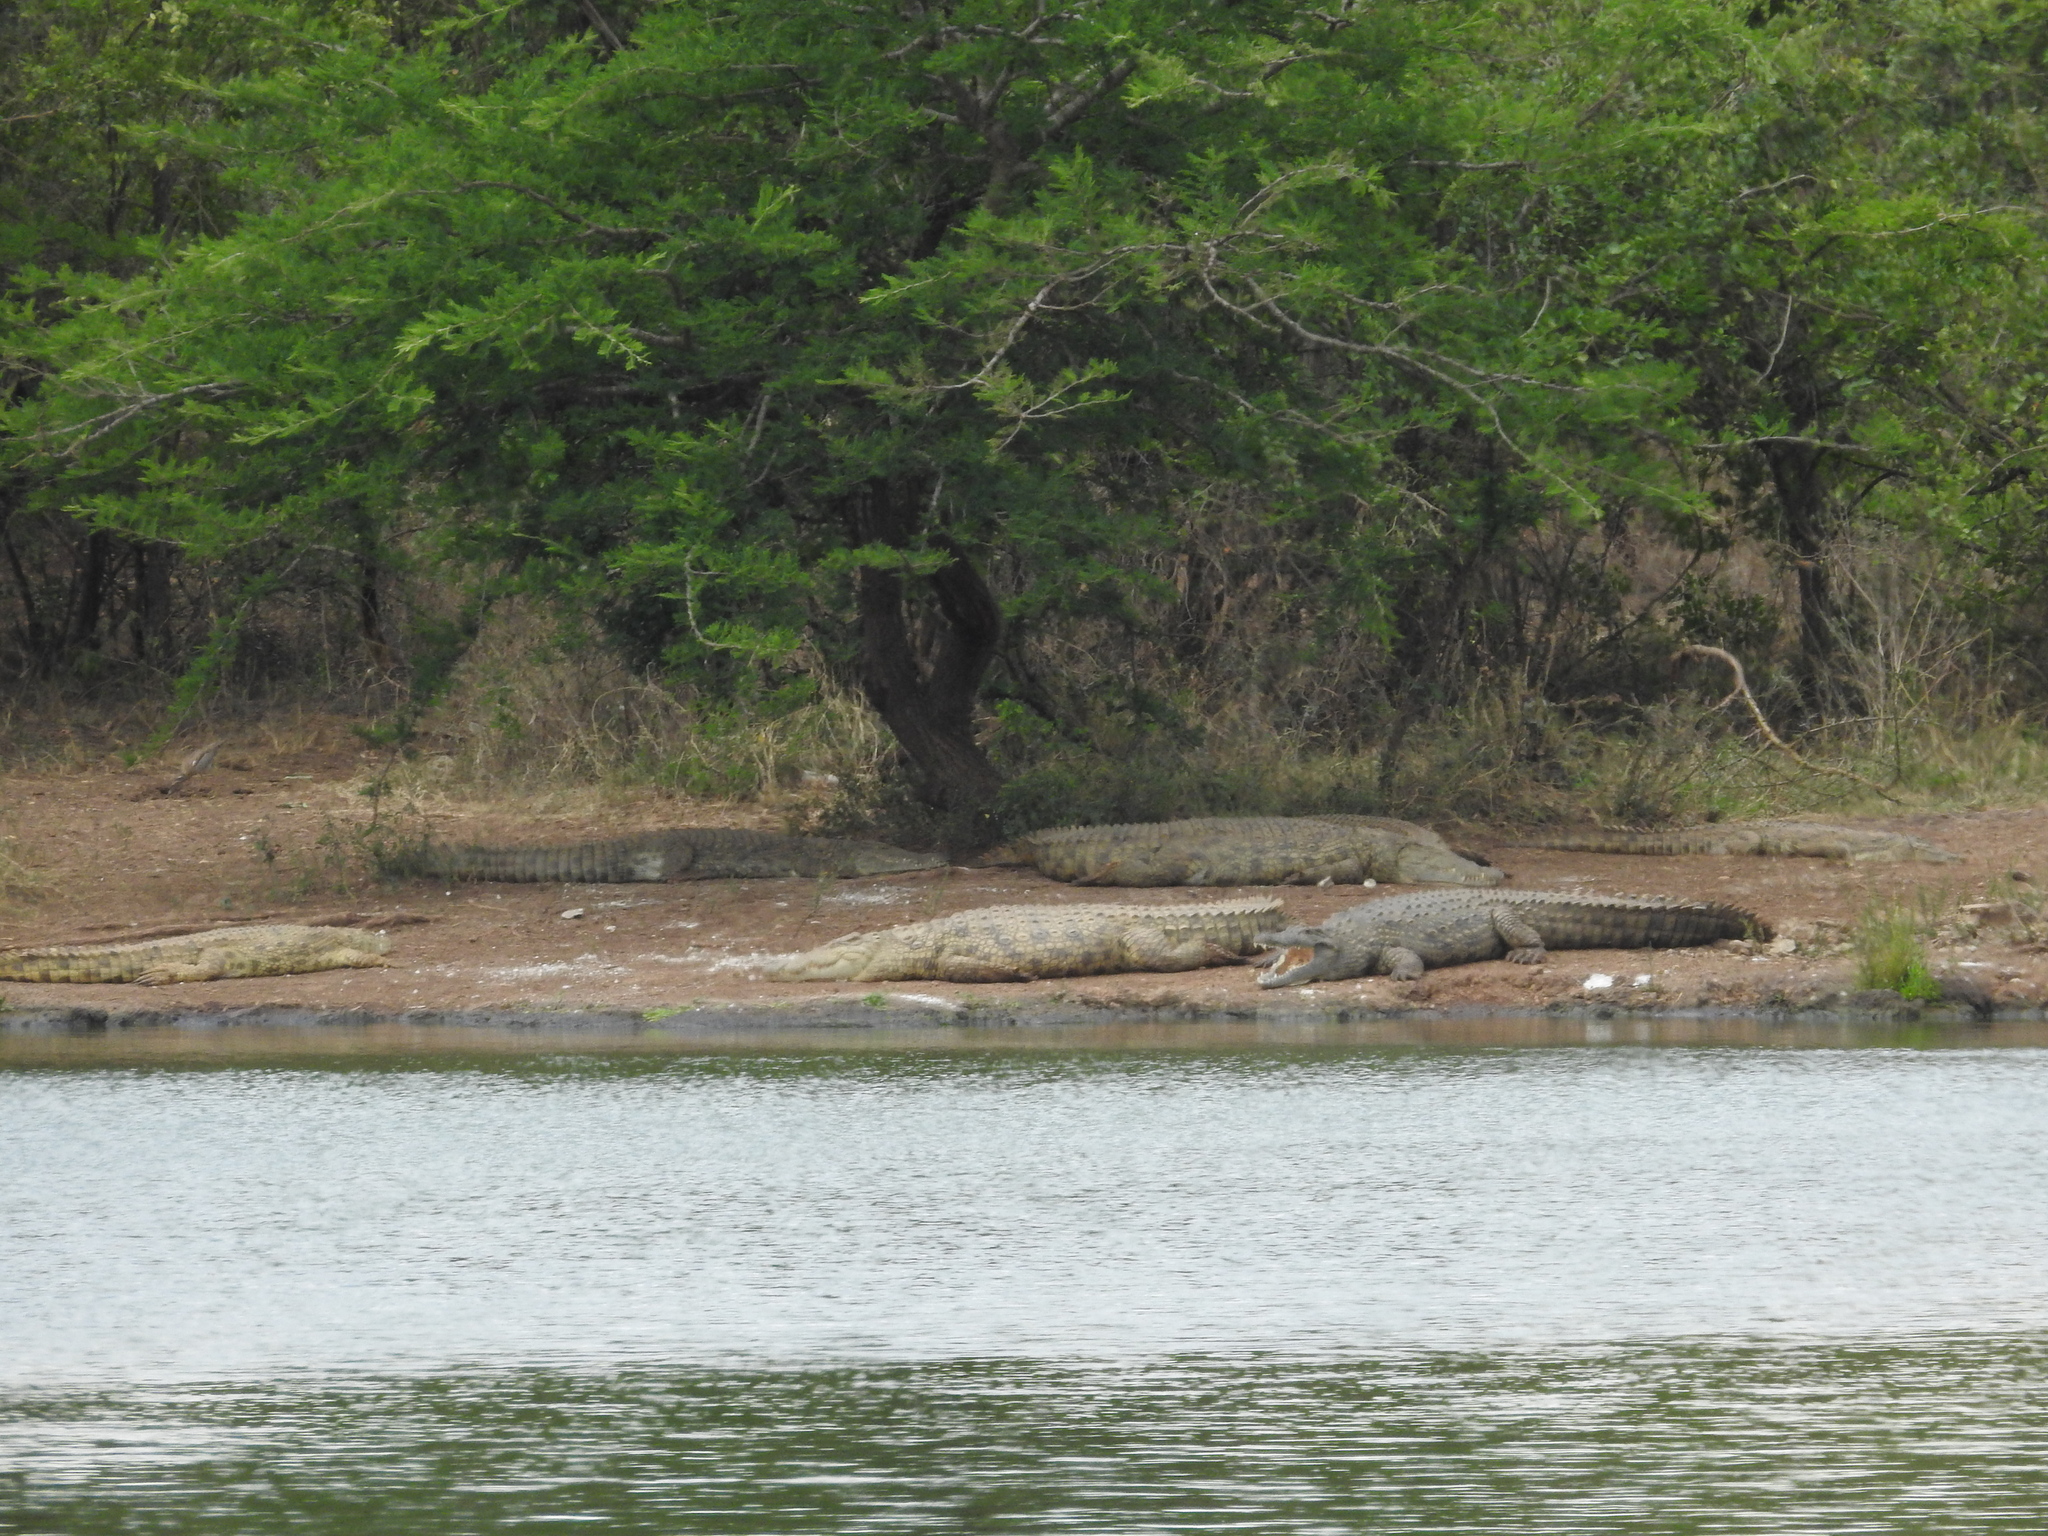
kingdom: Animalia
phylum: Chordata
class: Crocodylia
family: Crocodylidae
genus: Crocodylus
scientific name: Crocodylus niloticus
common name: Nile crocodile
